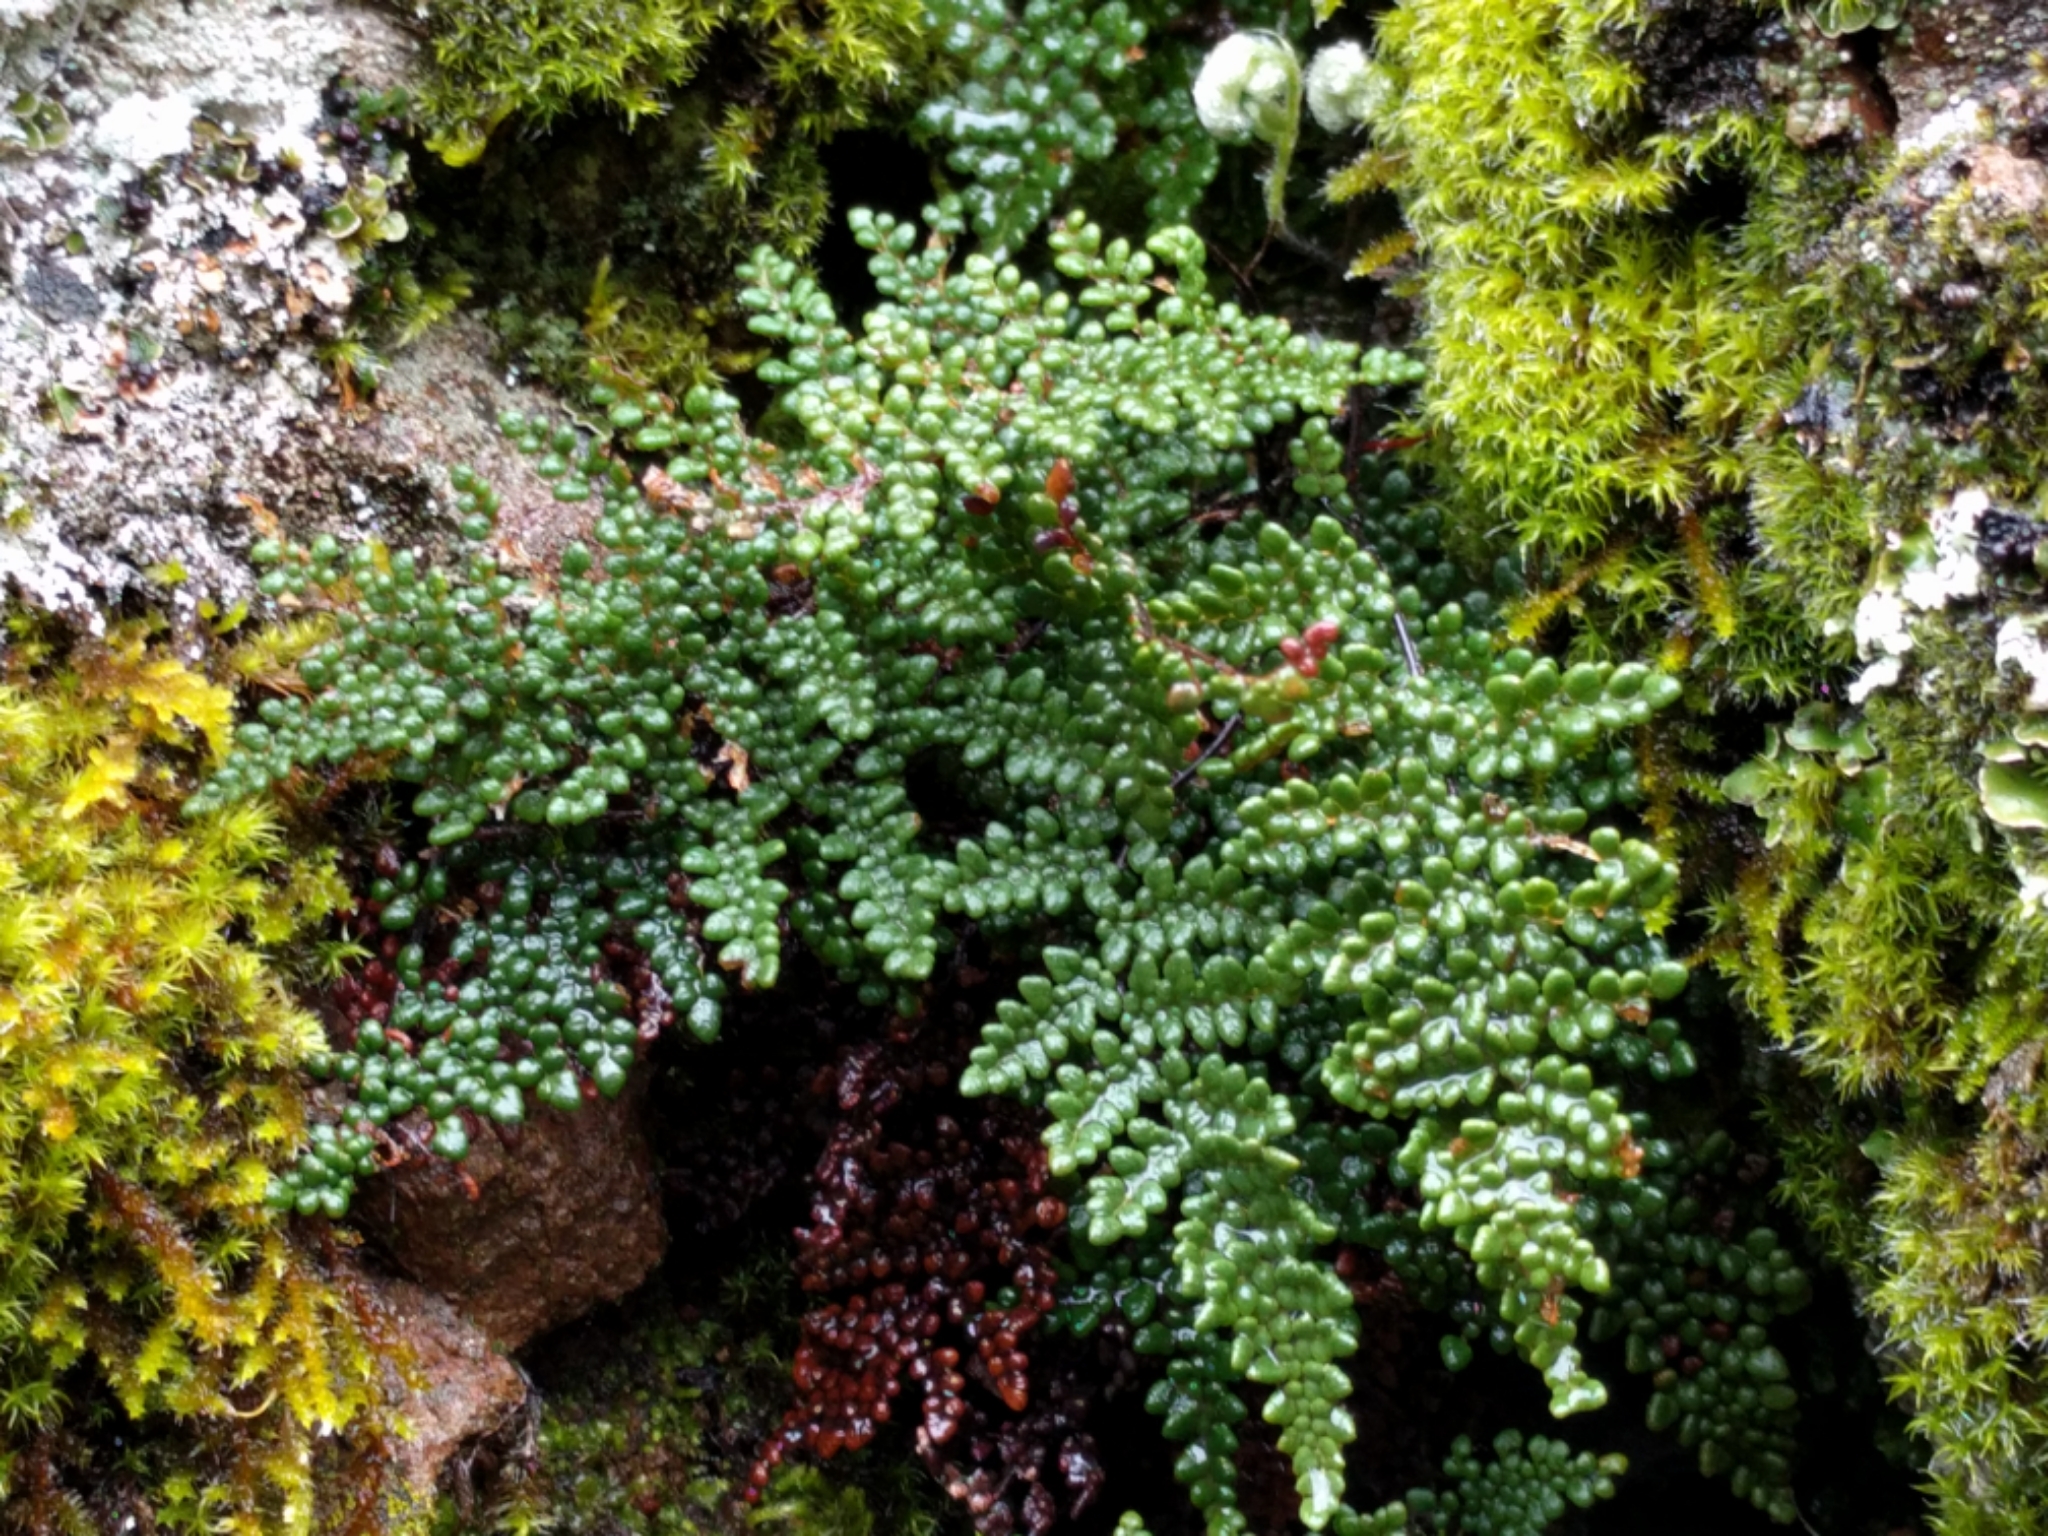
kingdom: Plantae
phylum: Tracheophyta
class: Polypodiopsida
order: Polypodiales
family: Pteridaceae
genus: Myriopteris
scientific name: Myriopteris intertexta
